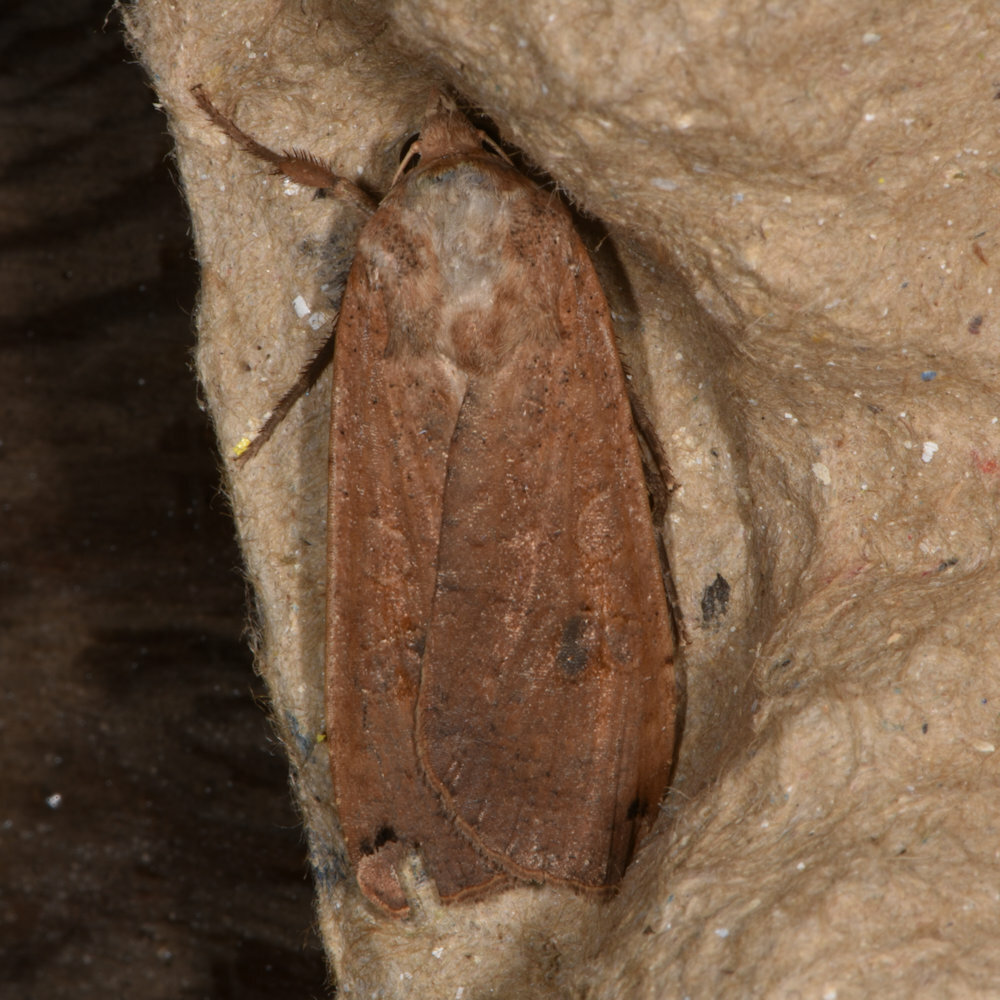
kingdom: Animalia
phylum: Arthropoda
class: Insecta
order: Lepidoptera
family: Noctuidae
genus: Noctua
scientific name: Noctua pronuba
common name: Large yellow underwing
